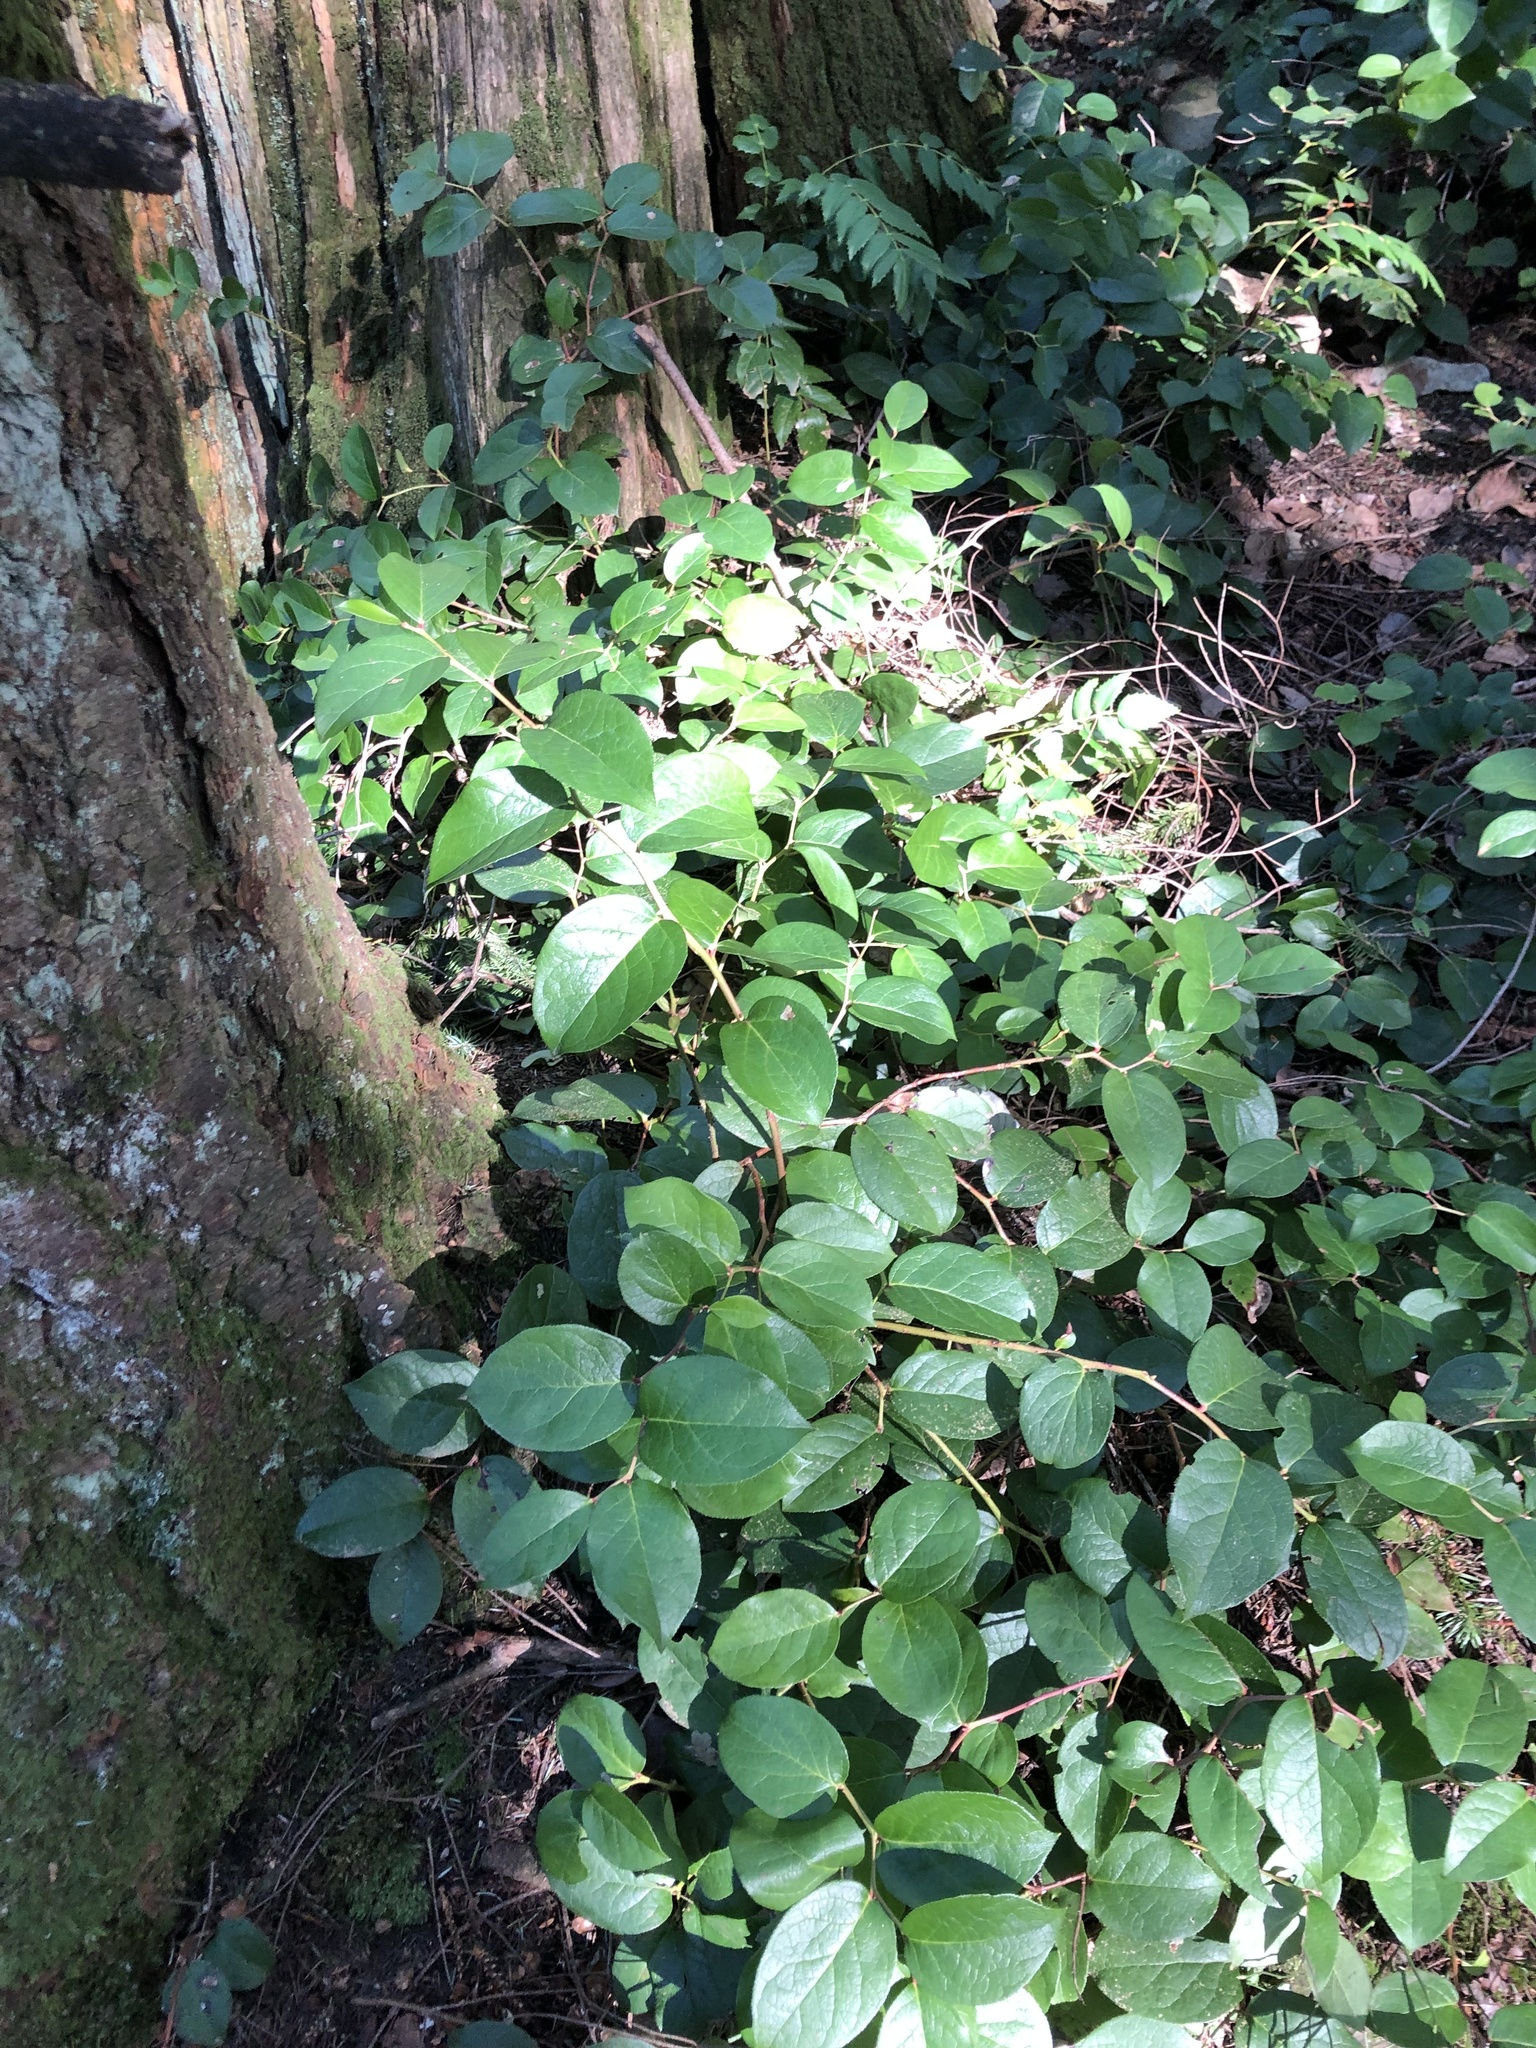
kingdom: Plantae
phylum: Tracheophyta
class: Magnoliopsida
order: Ericales
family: Ericaceae
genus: Gaultheria
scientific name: Gaultheria shallon
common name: Shallon
